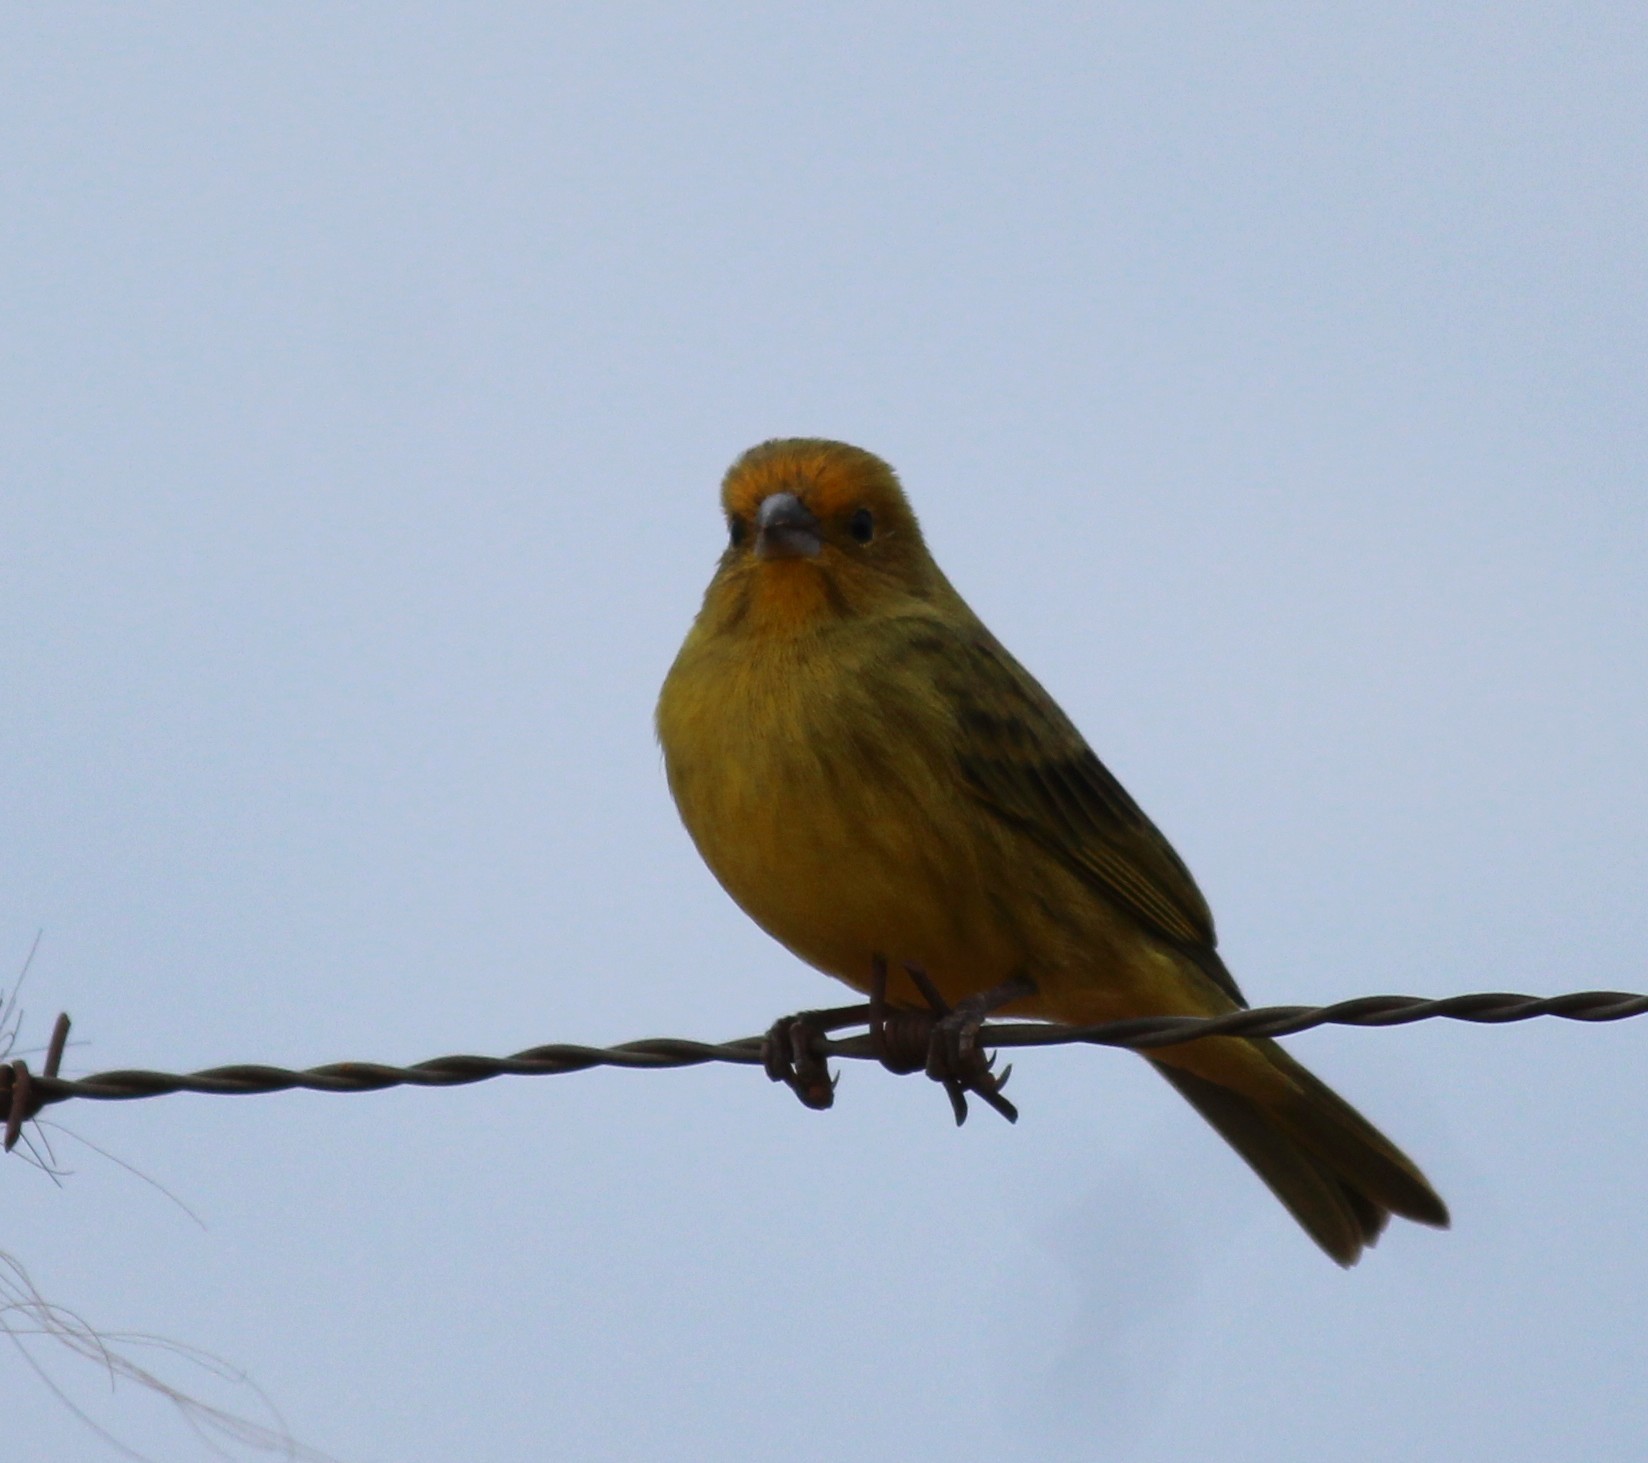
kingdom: Animalia
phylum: Chordata
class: Aves
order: Passeriformes
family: Thraupidae
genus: Sicalis
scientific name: Sicalis flaveola
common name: Saffron finch
